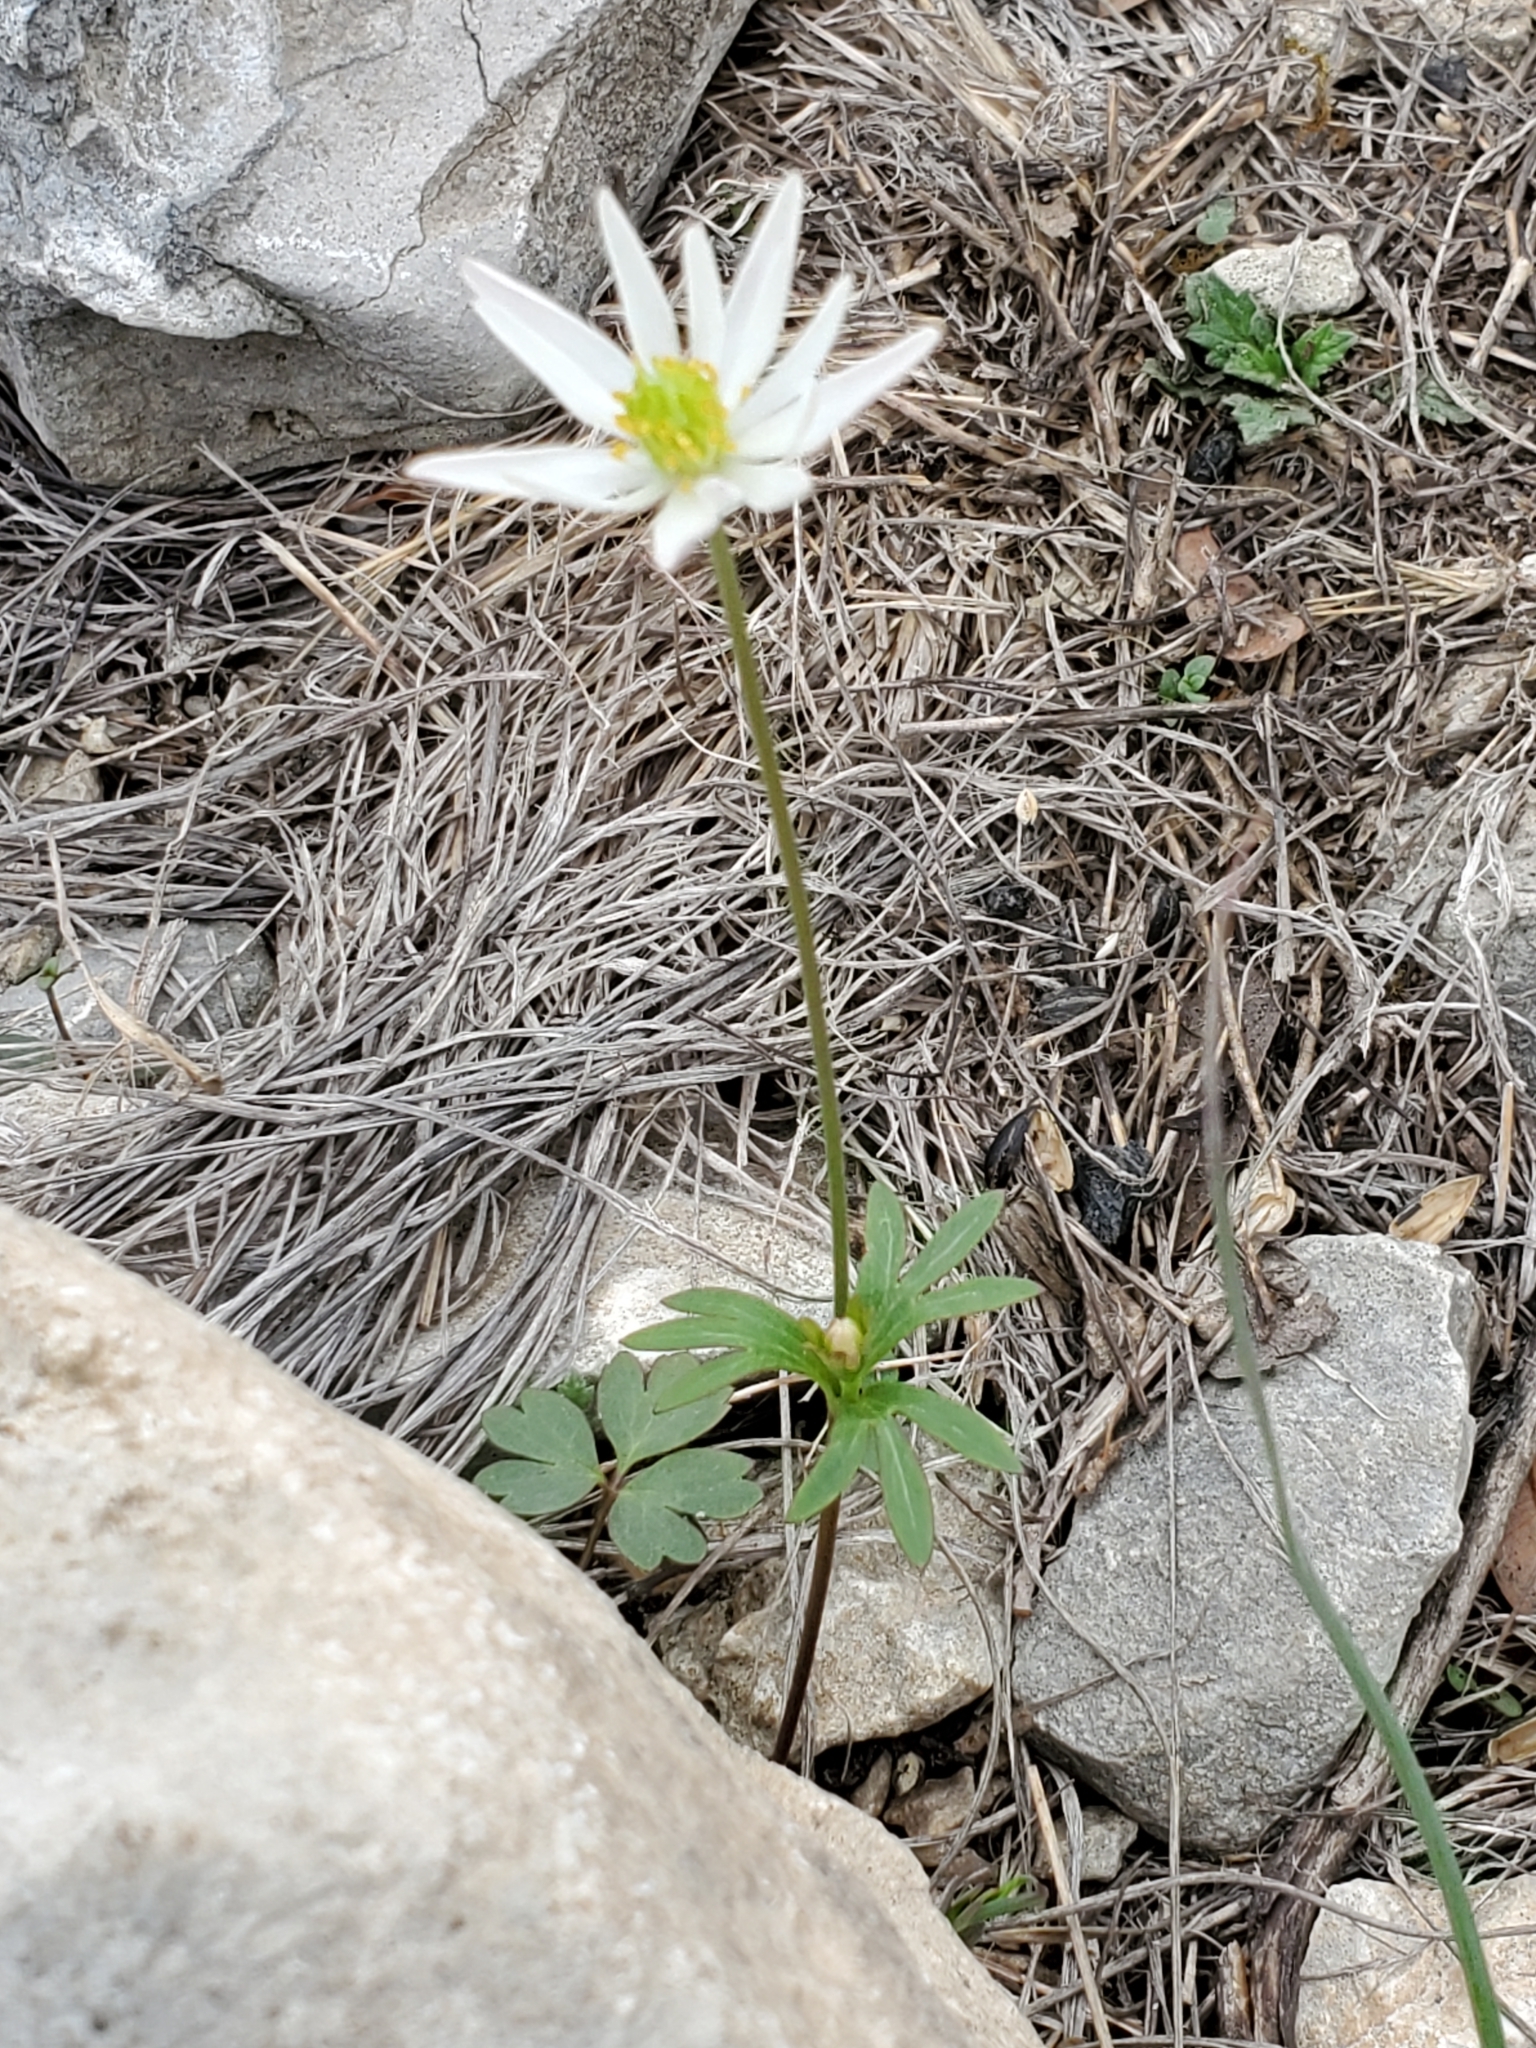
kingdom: Plantae
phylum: Tracheophyta
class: Magnoliopsida
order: Ranunculales
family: Ranunculaceae
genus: Anemone
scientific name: Anemone edwardsiana
